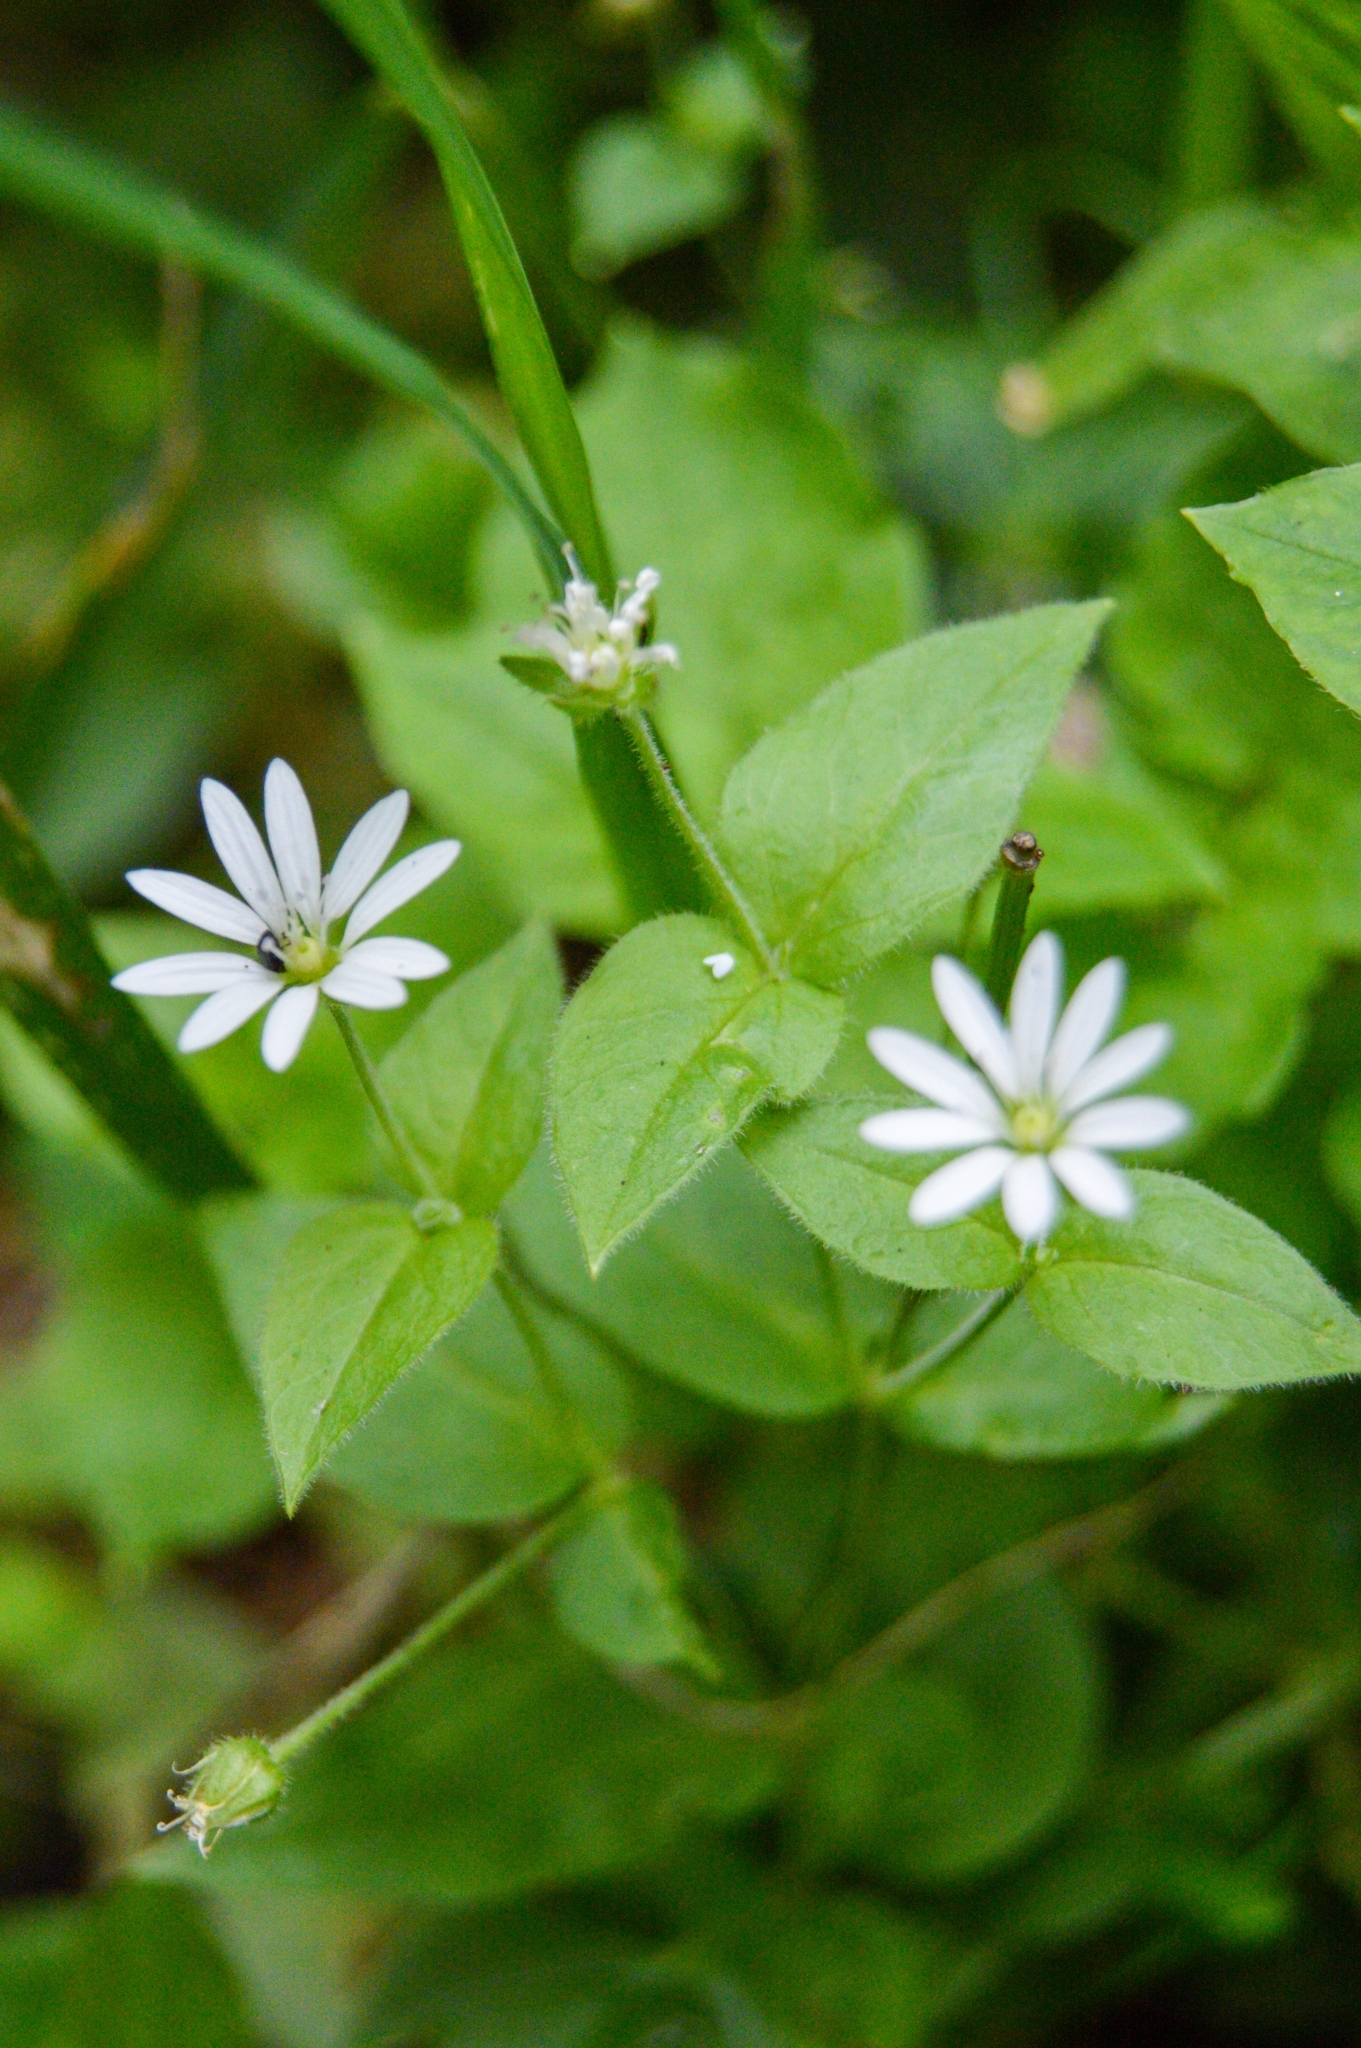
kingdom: Plantae
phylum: Tracheophyta
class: Magnoliopsida
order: Caryophyllales
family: Caryophyllaceae
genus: Stellaria
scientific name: Stellaria bungeana
